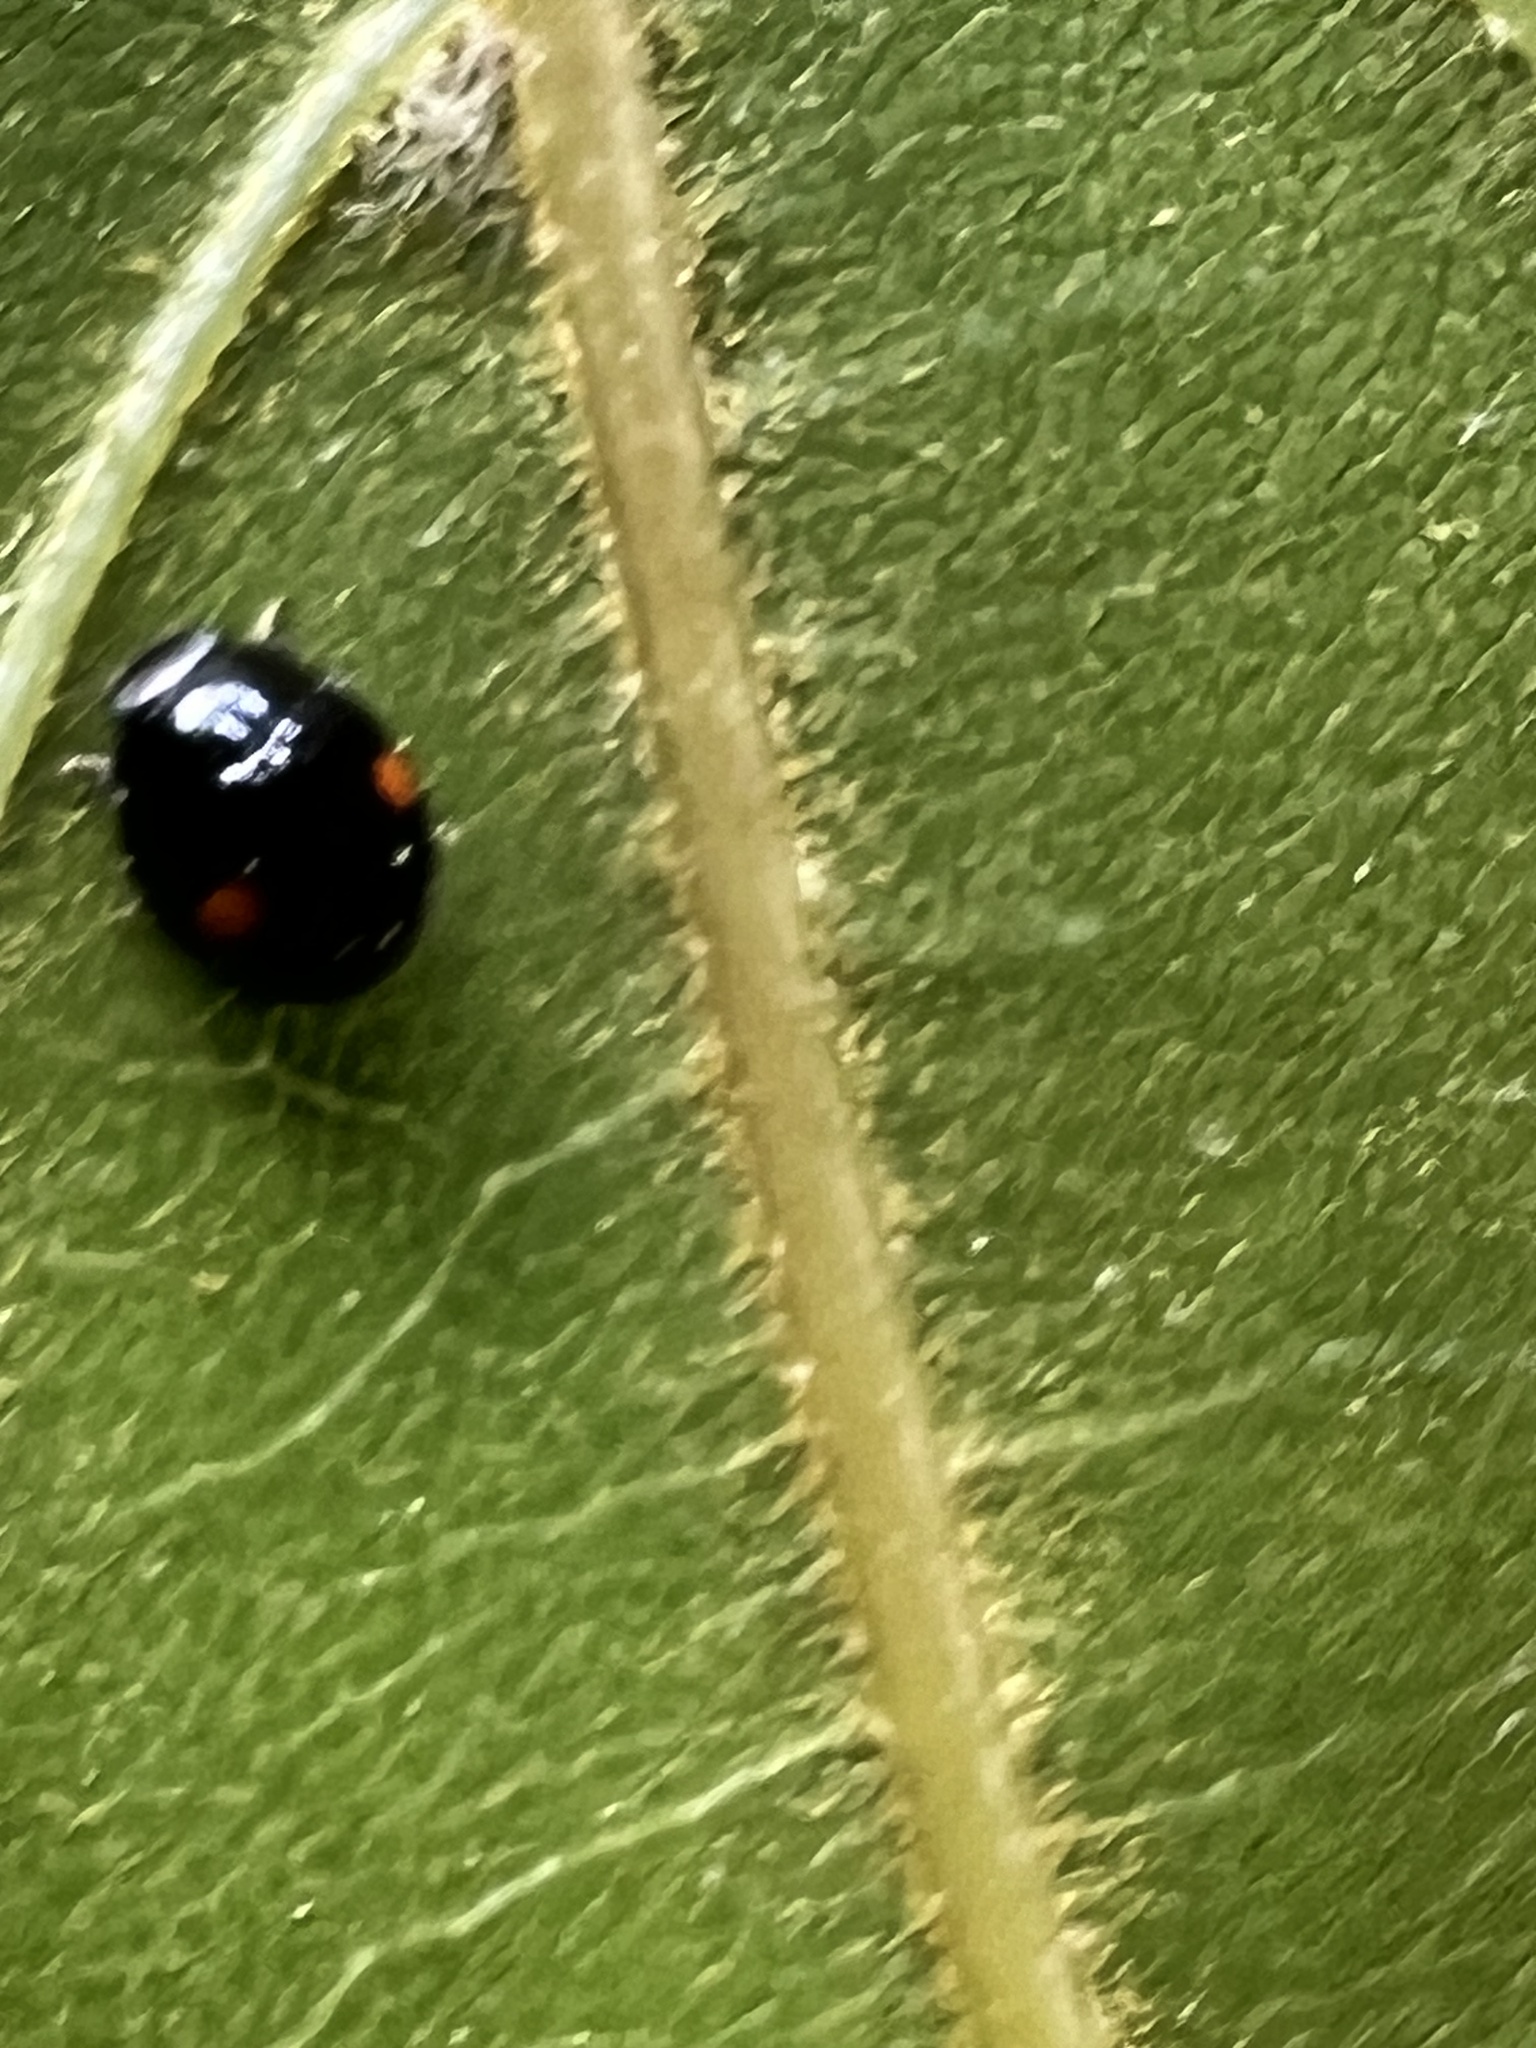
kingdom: Animalia
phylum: Arthropoda
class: Insecta
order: Coleoptera
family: Coccinellidae
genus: Chilocorus
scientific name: Chilocorus stigma
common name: Twicestabbed lady beetle
